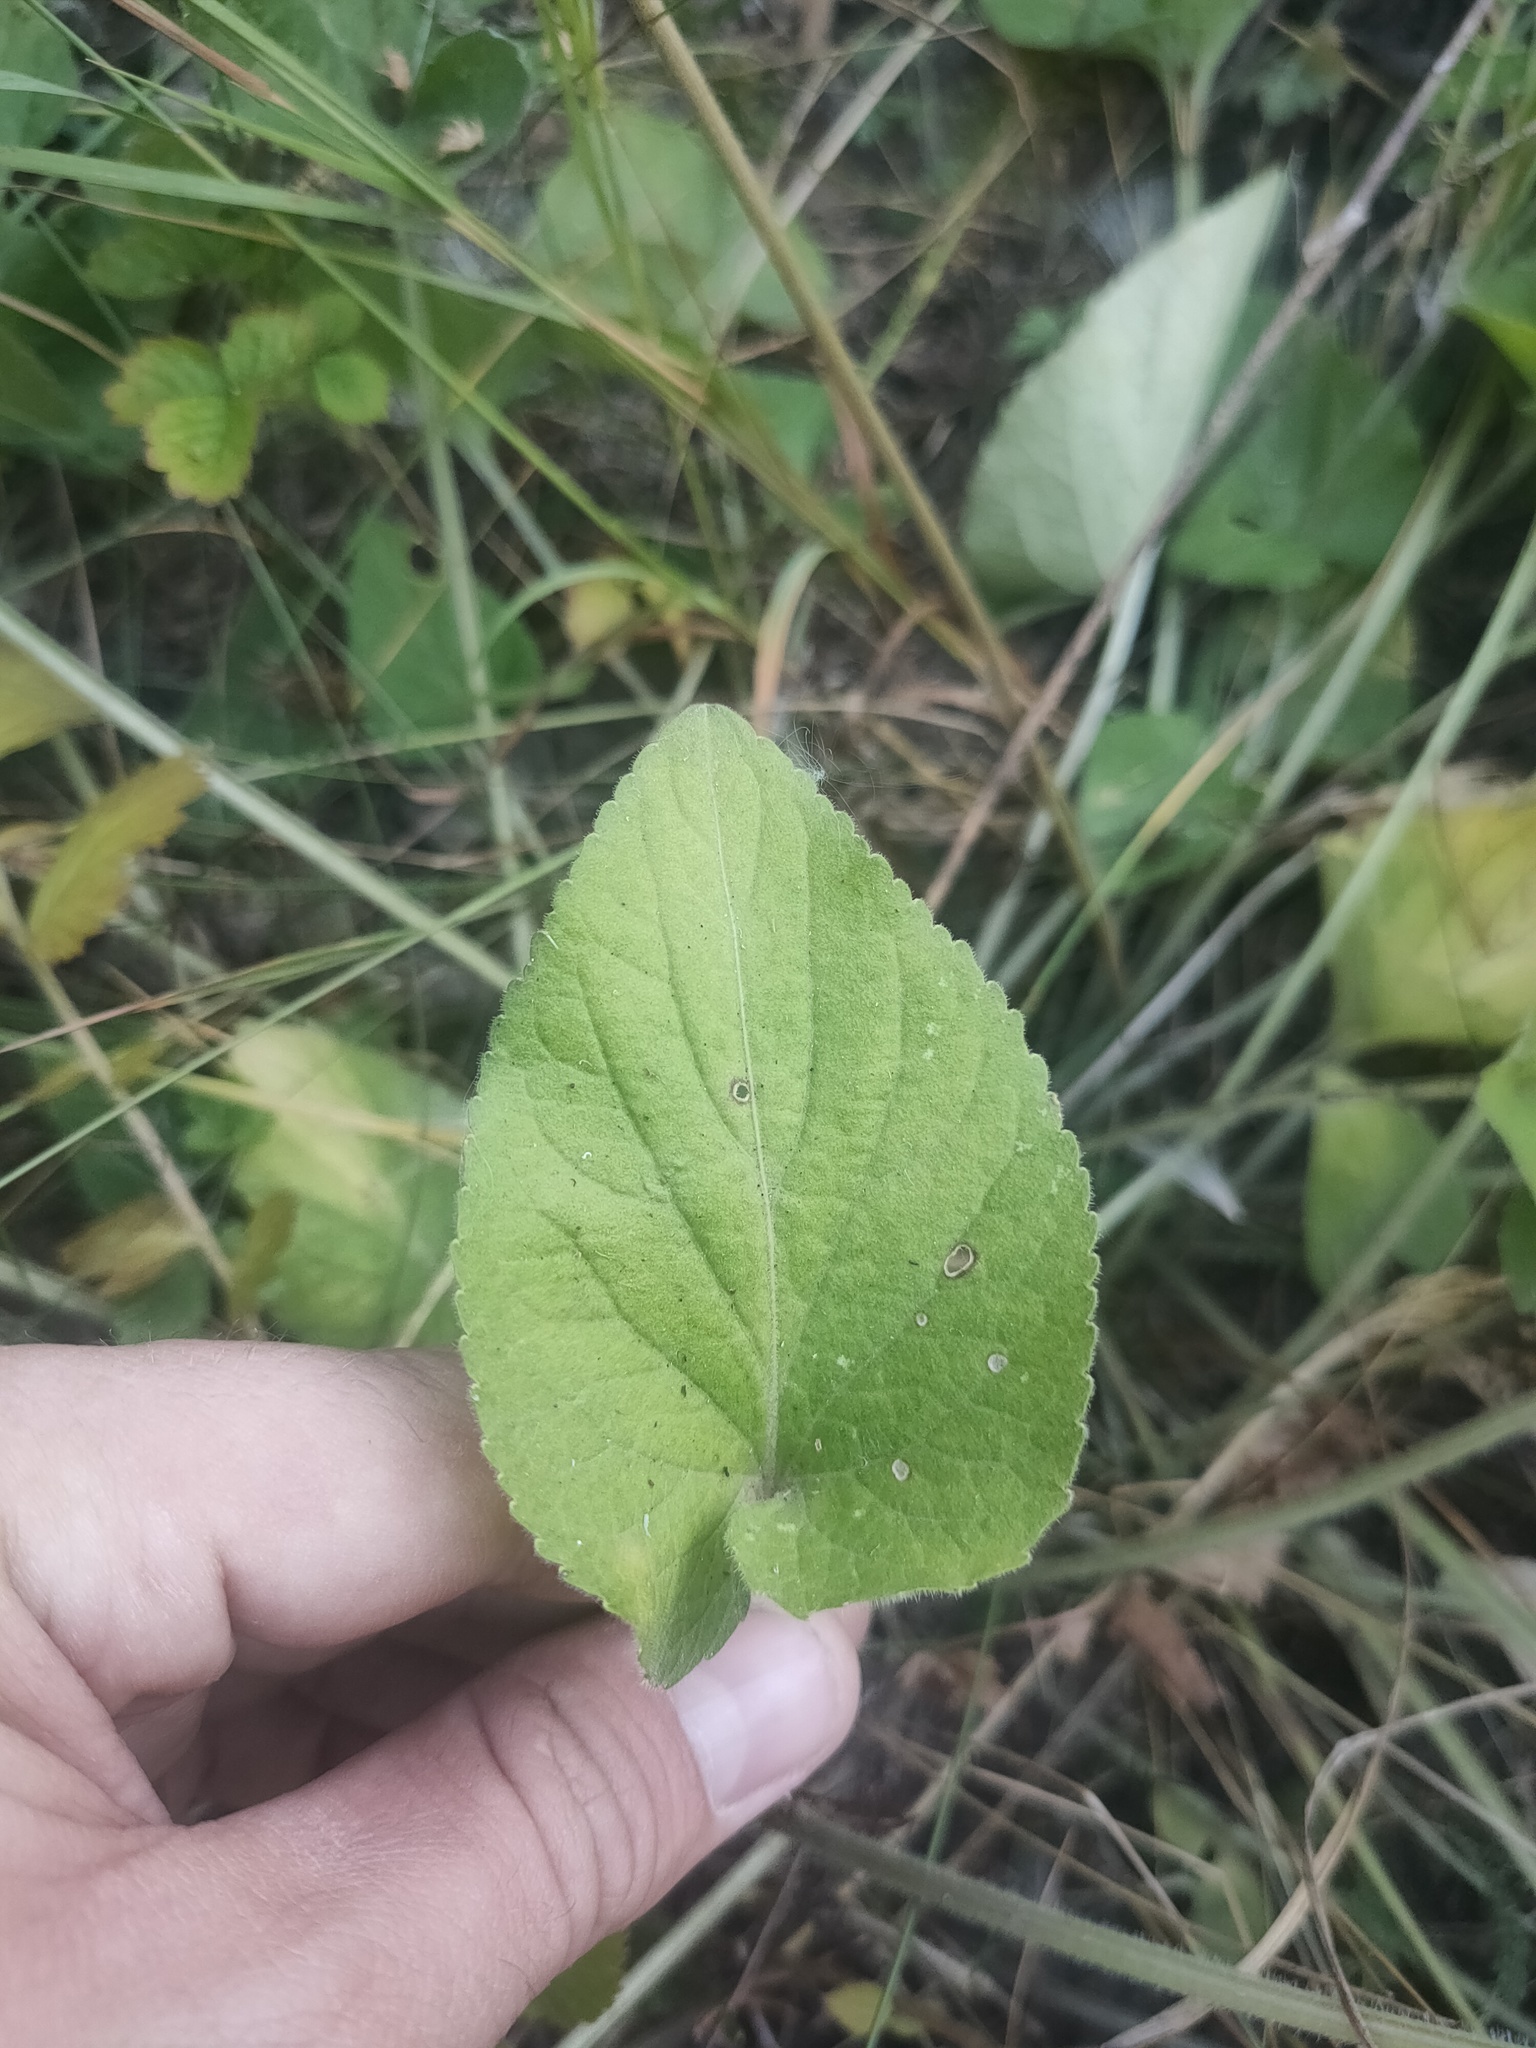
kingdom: Plantae
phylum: Tracheophyta
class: Magnoliopsida
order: Malpighiales
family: Violaceae
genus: Viola
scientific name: Viola hirta
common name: Hairy violet
